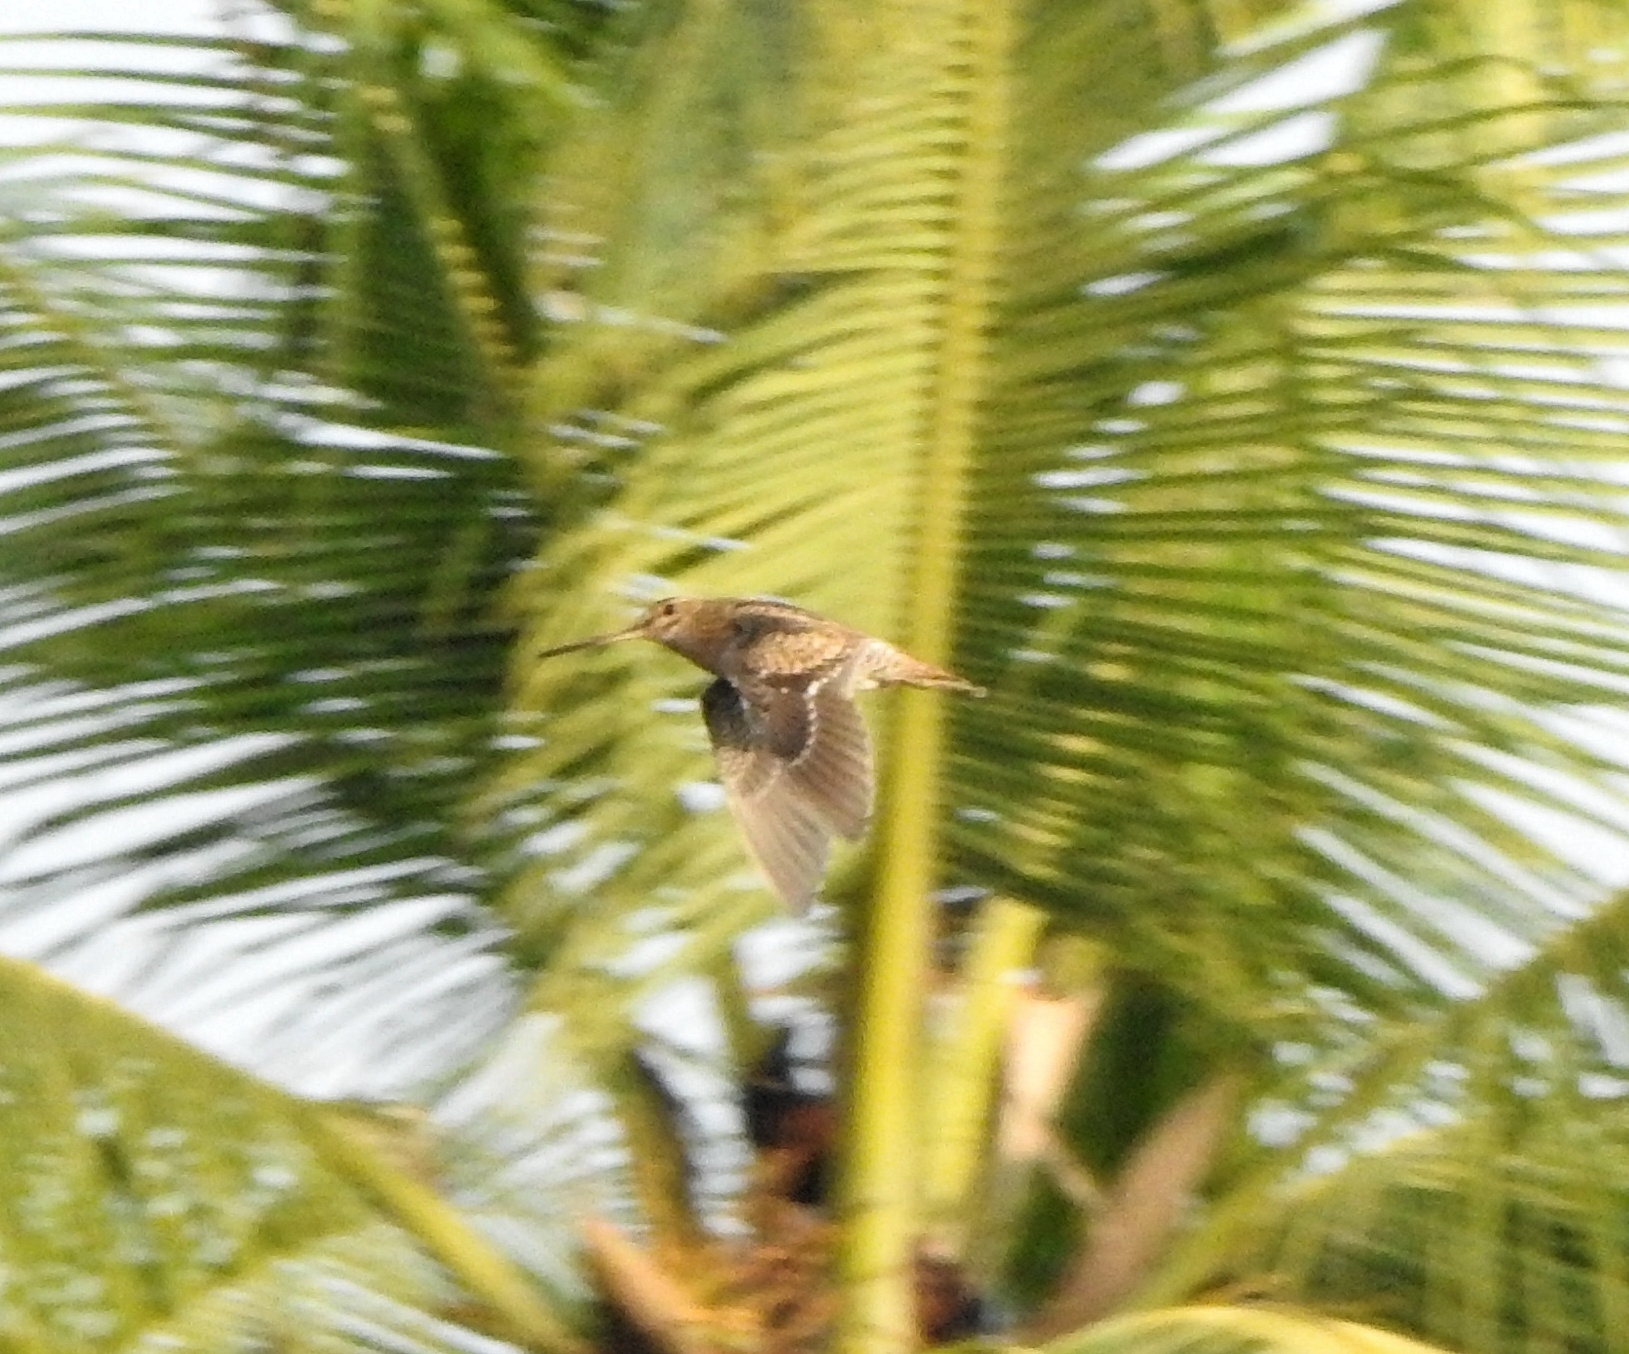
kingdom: Animalia
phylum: Chordata
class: Aves
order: Charadriiformes
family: Scolopacidae
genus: Gallinago
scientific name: Gallinago stenura
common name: Pin-tailed snipe
